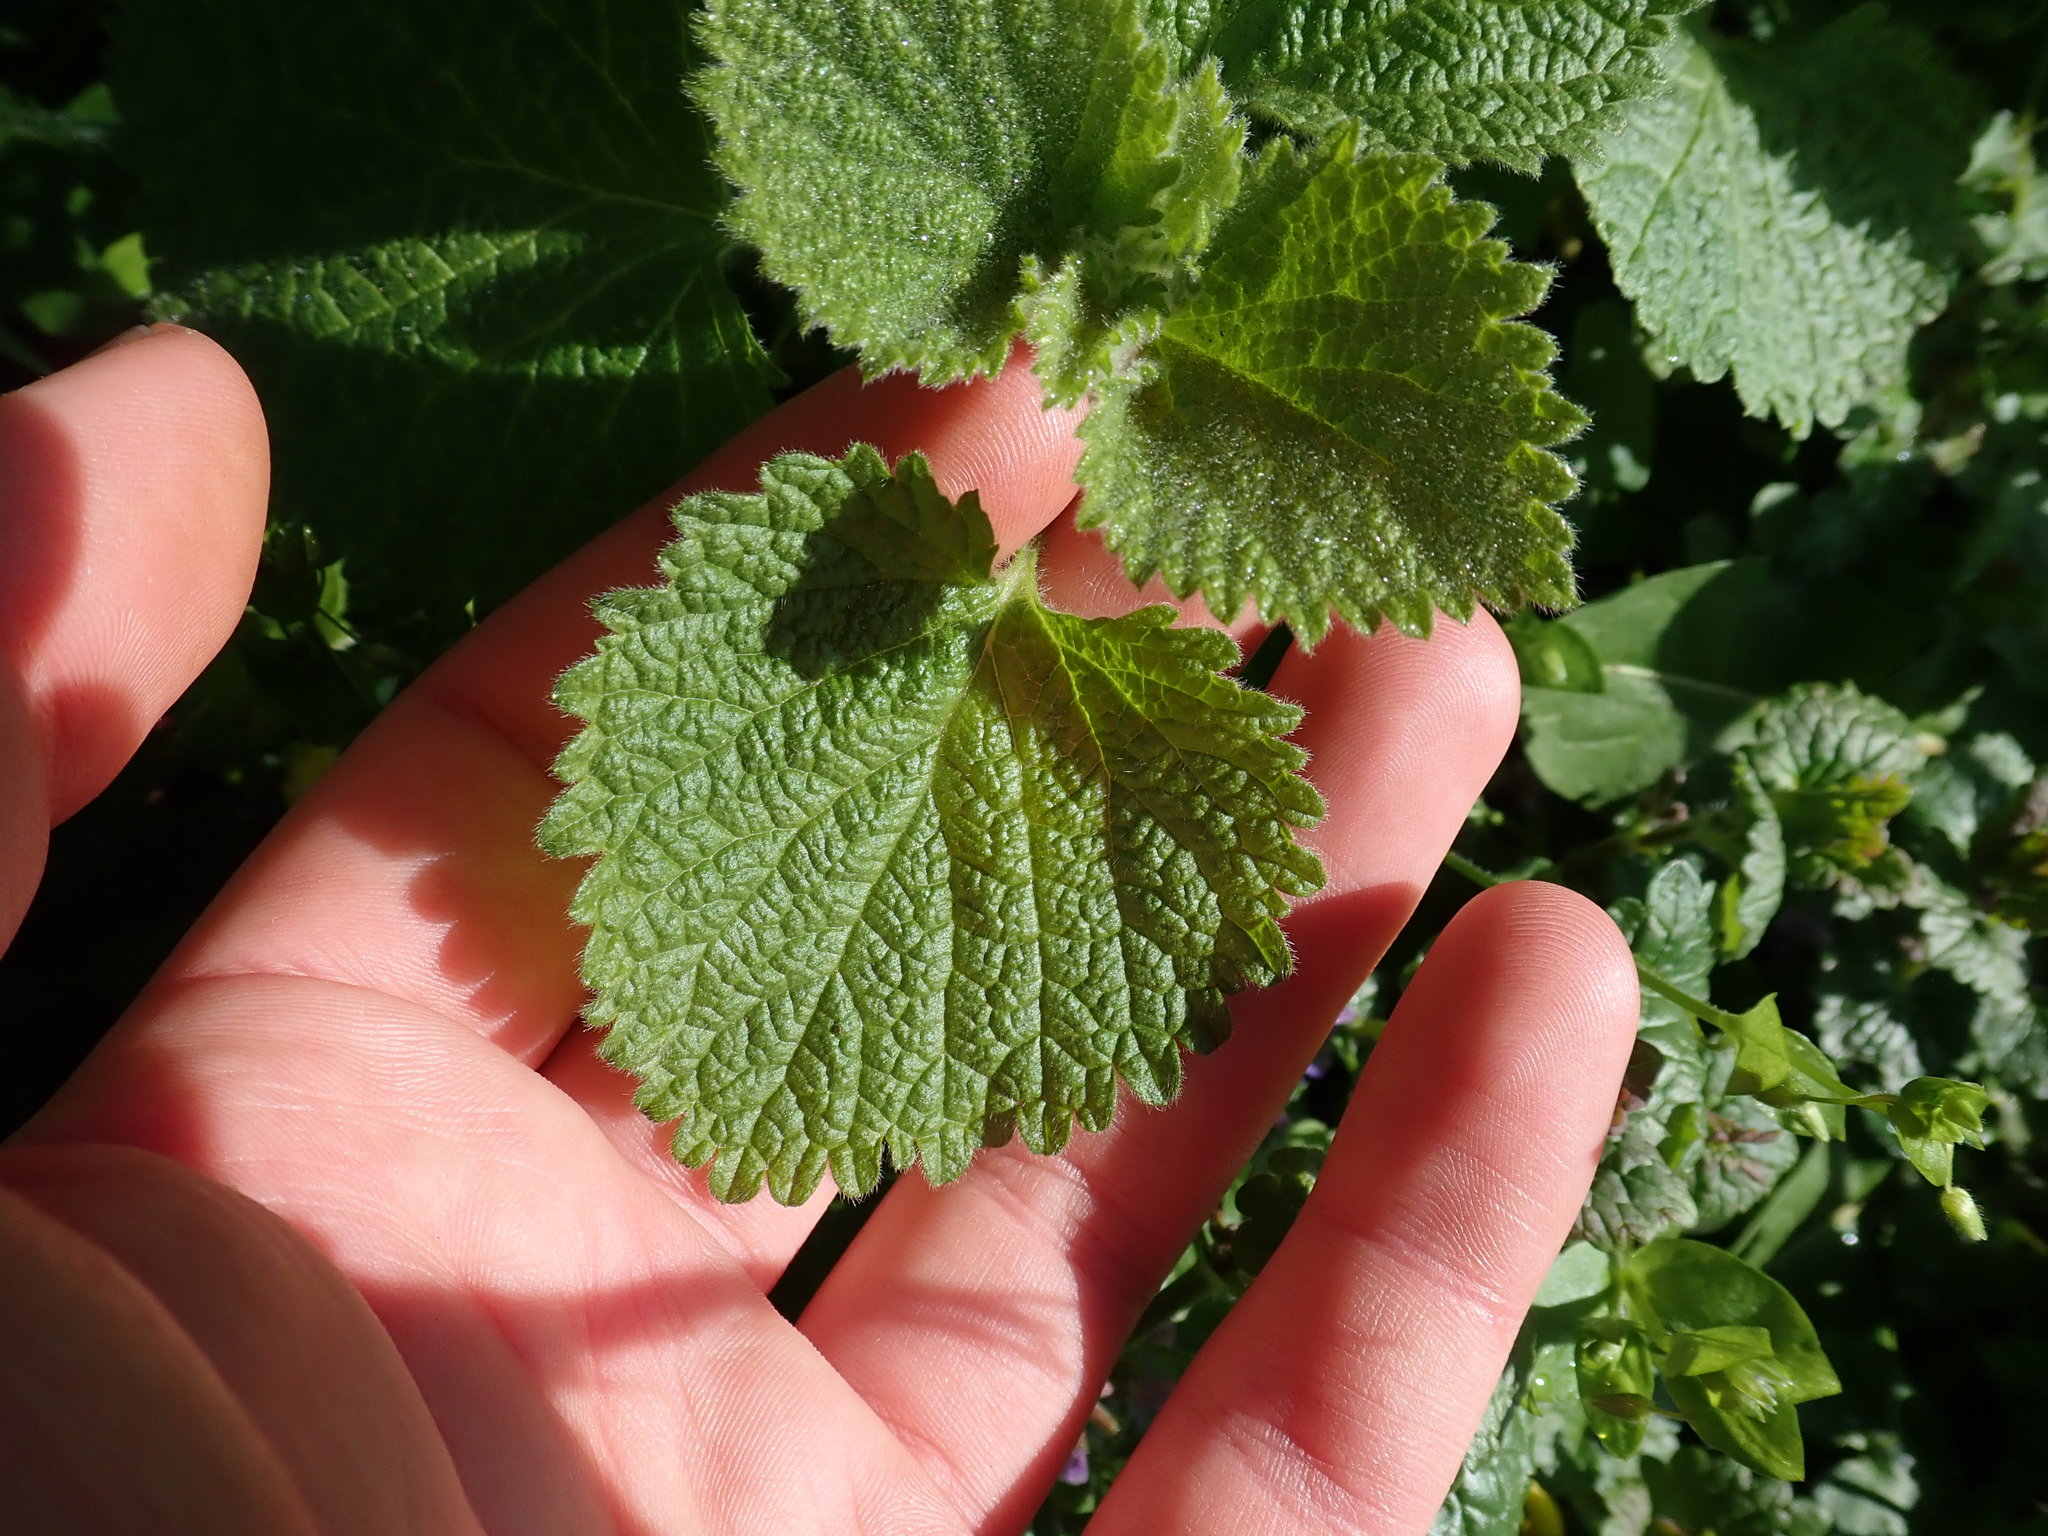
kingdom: Plantae
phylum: Tracheophyta
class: Magnoliopsida
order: Lamiales
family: Lamiaceae
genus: Ballota
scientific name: Ballota nigra
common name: Black horehound
